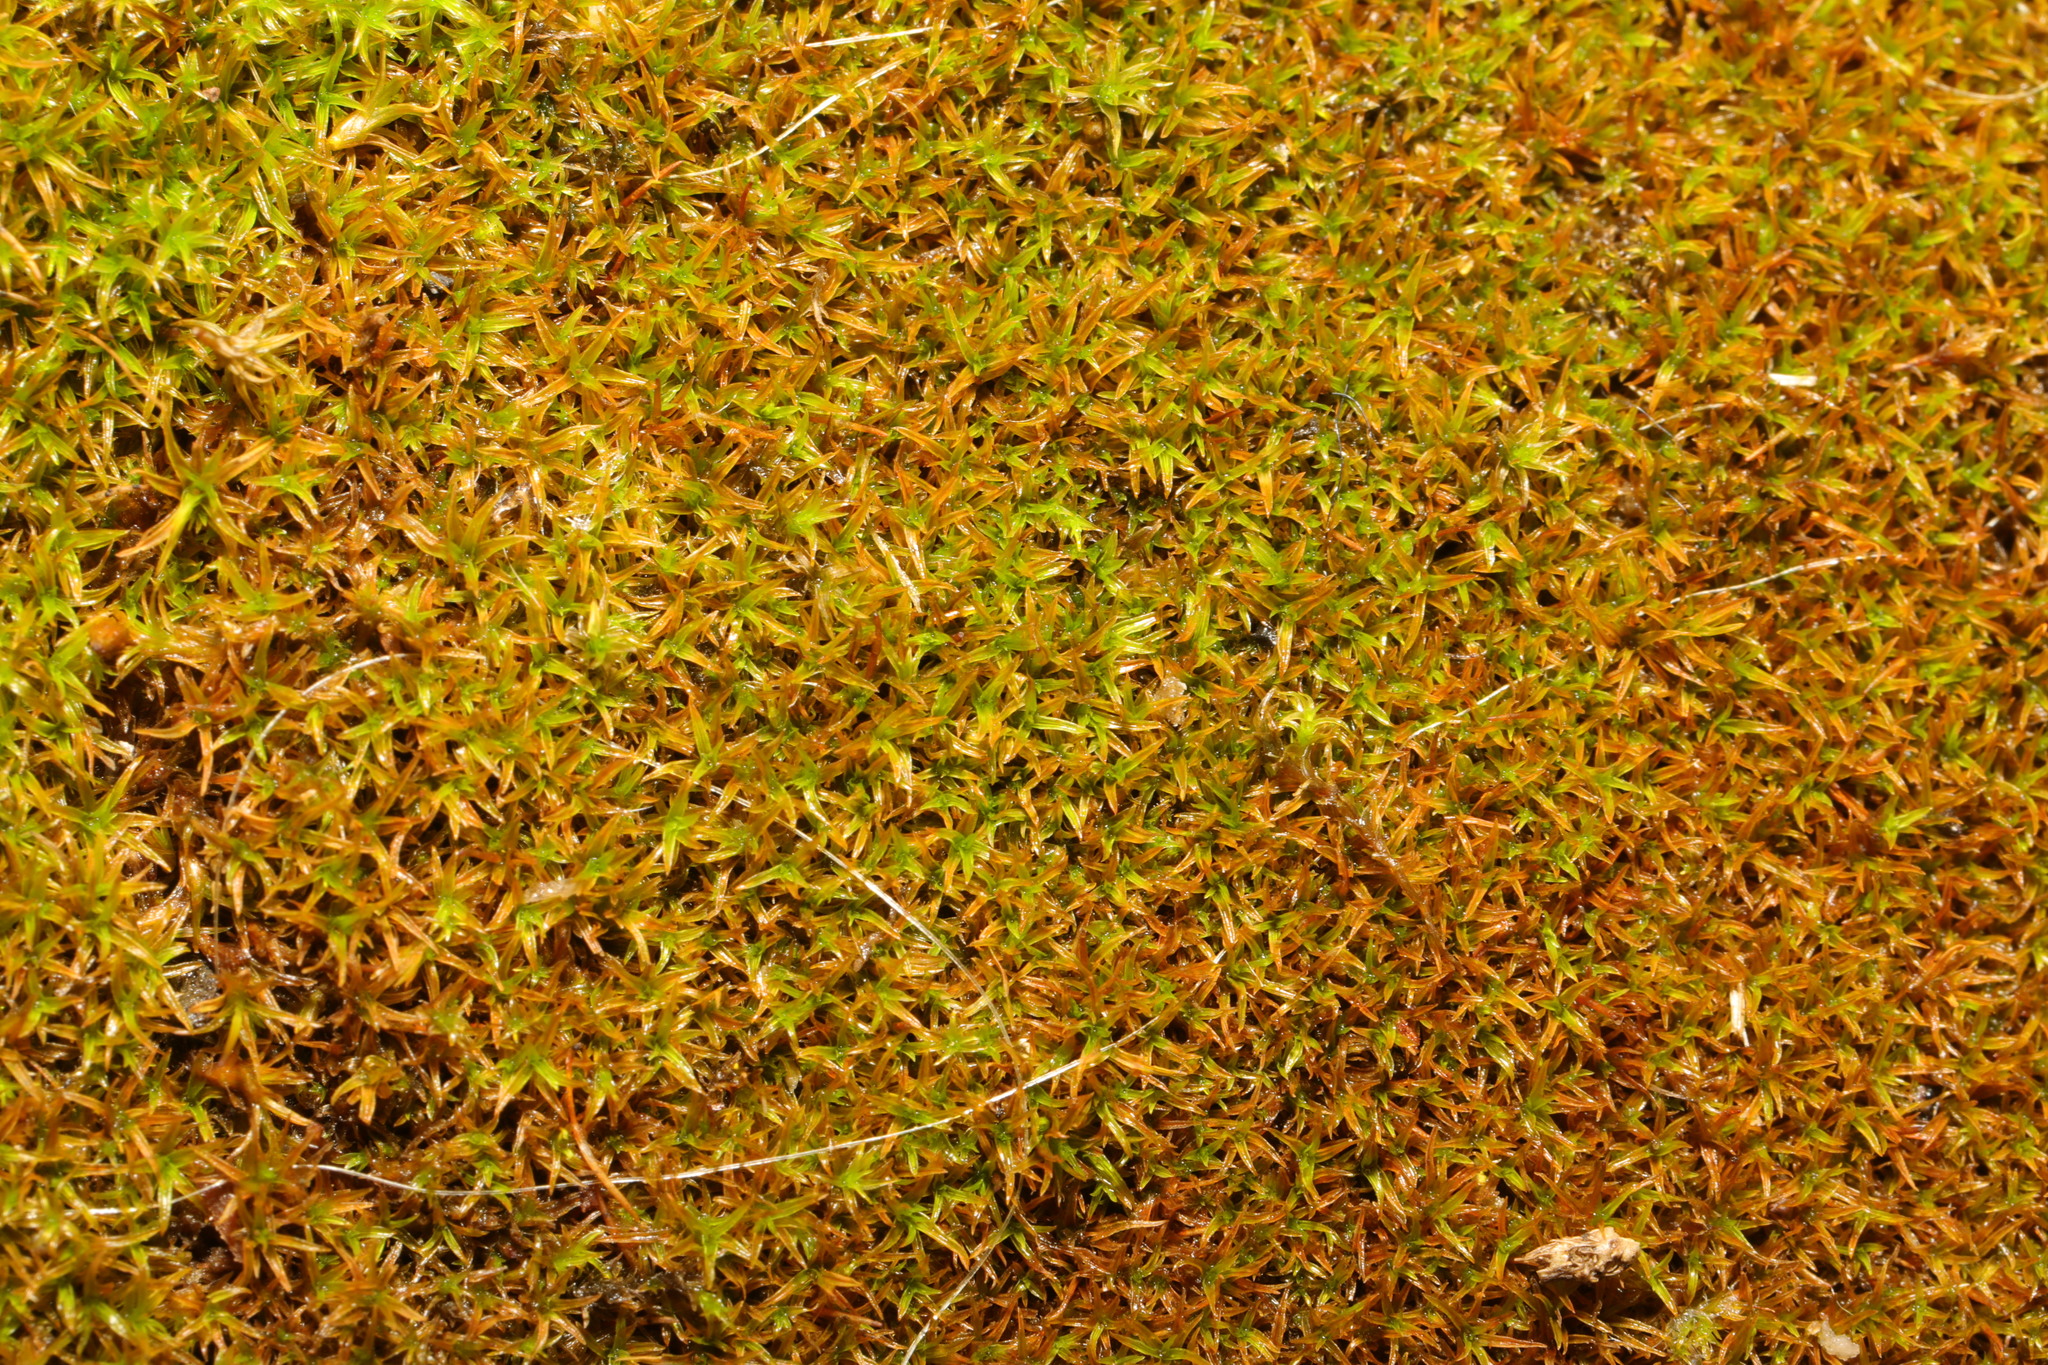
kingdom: Plantae
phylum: Bryophyta
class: Bryopsida
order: Pottiales
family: Pottiaceae
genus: Bryoerythrophyllum
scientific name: Bryoerythrophyllum recurvirostrum
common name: Red beard moss
